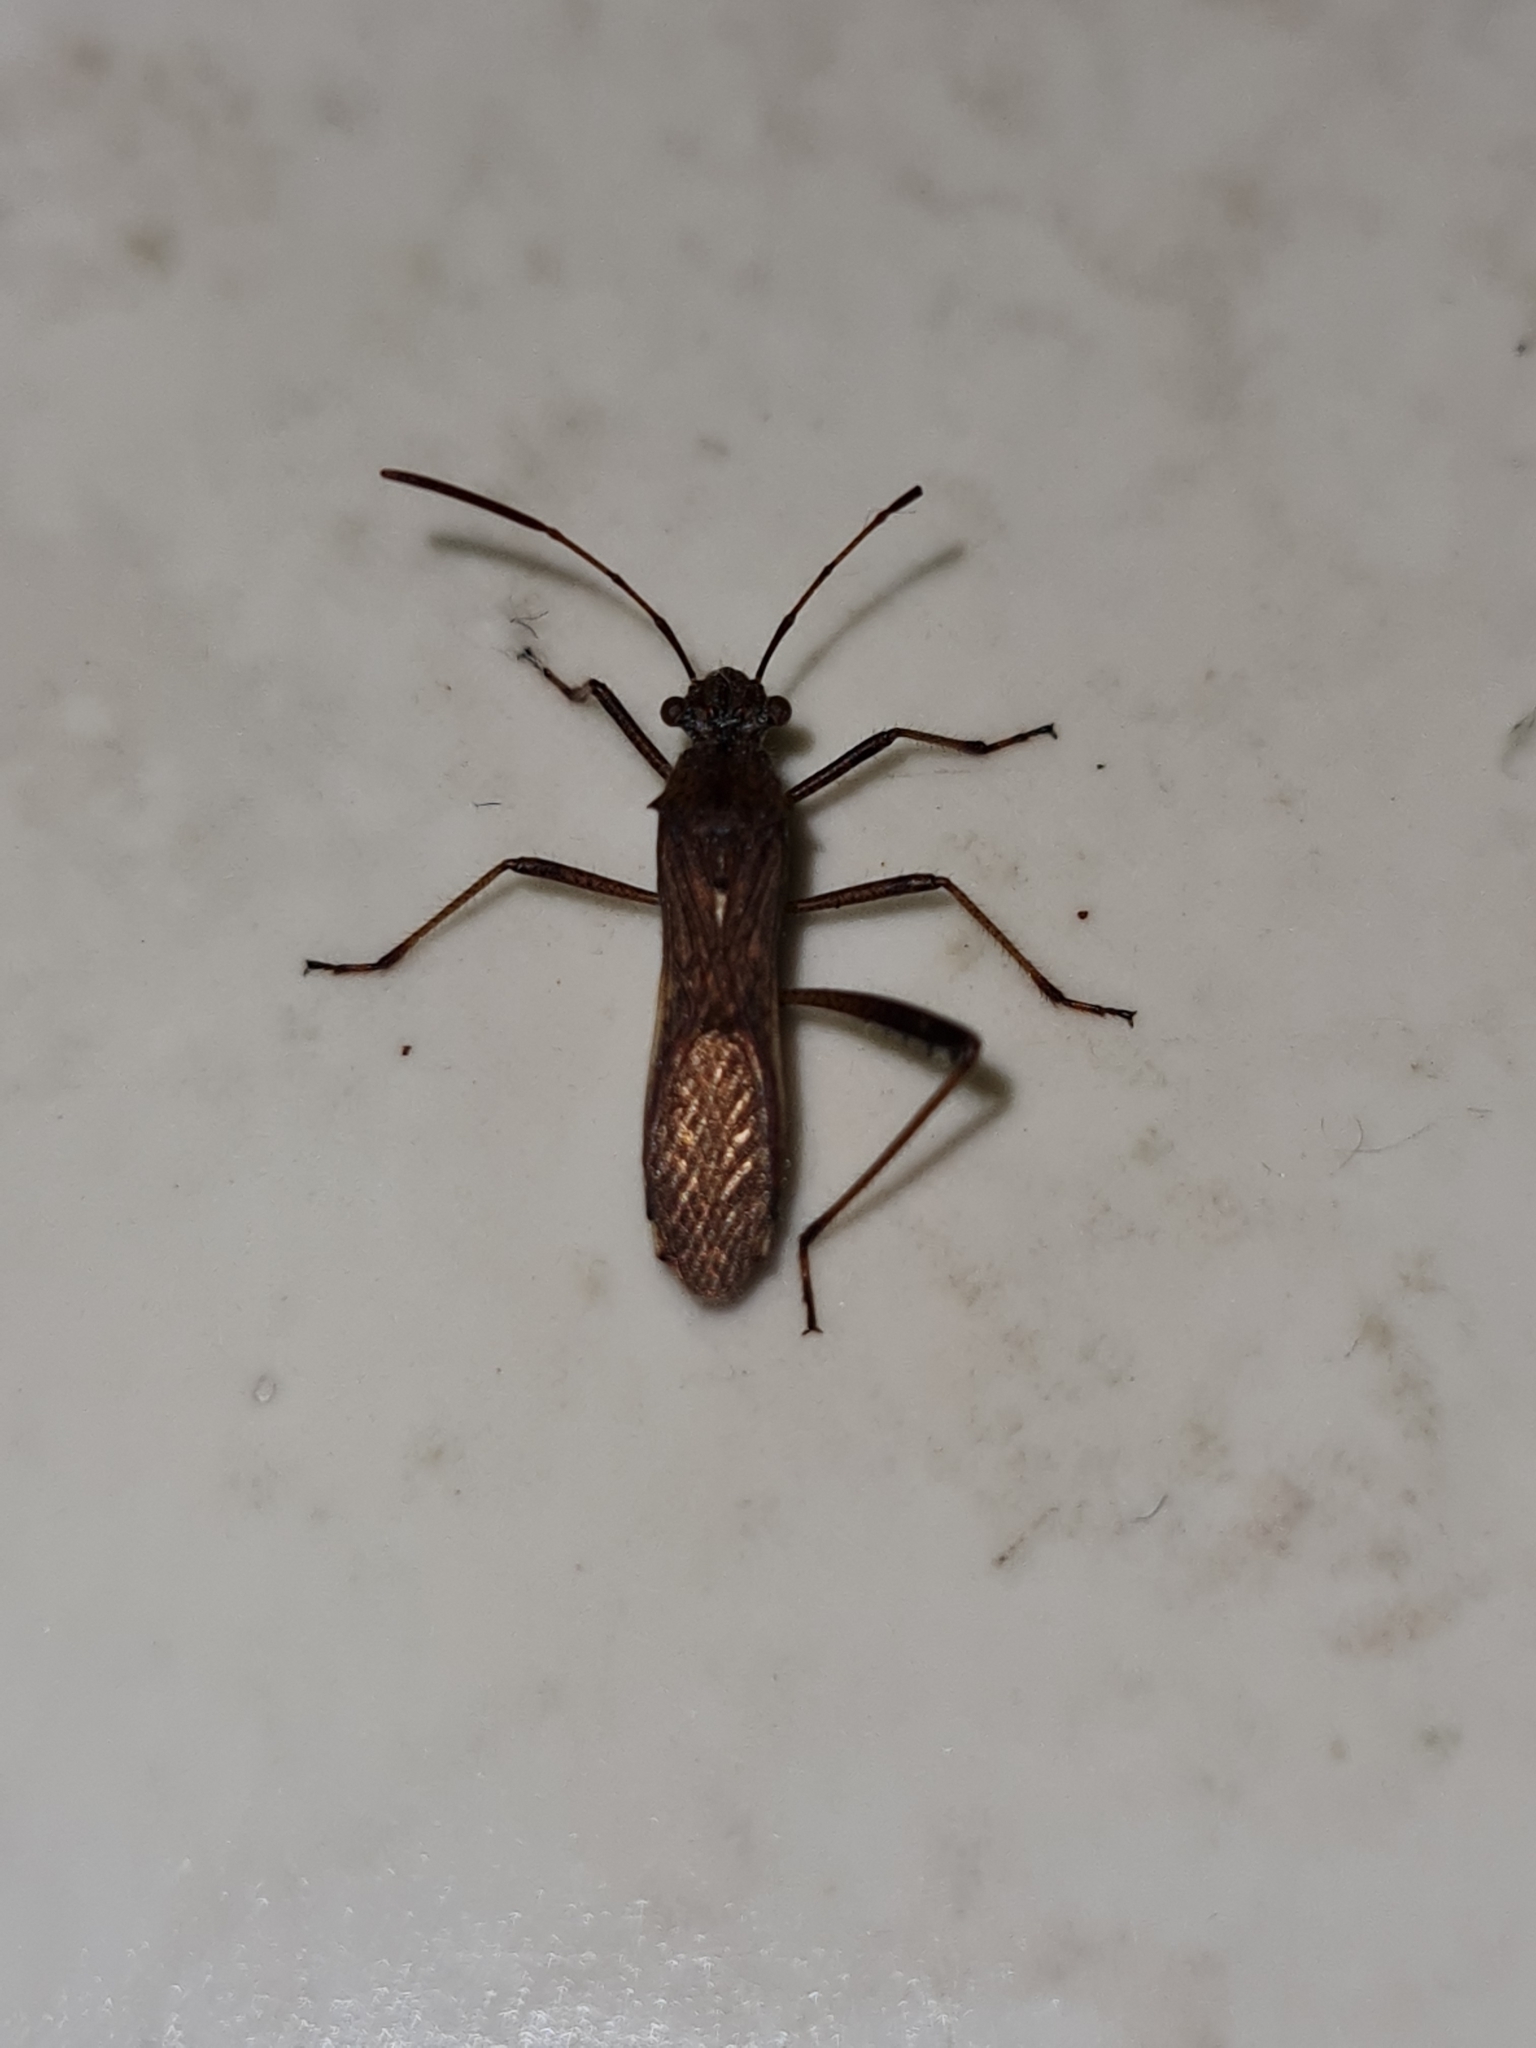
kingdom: Animalia
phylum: Arthropoda
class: Insecta
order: Hemiptera
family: Alydidae
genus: Neomegalotomus
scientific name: Neomegalotomus parvus
